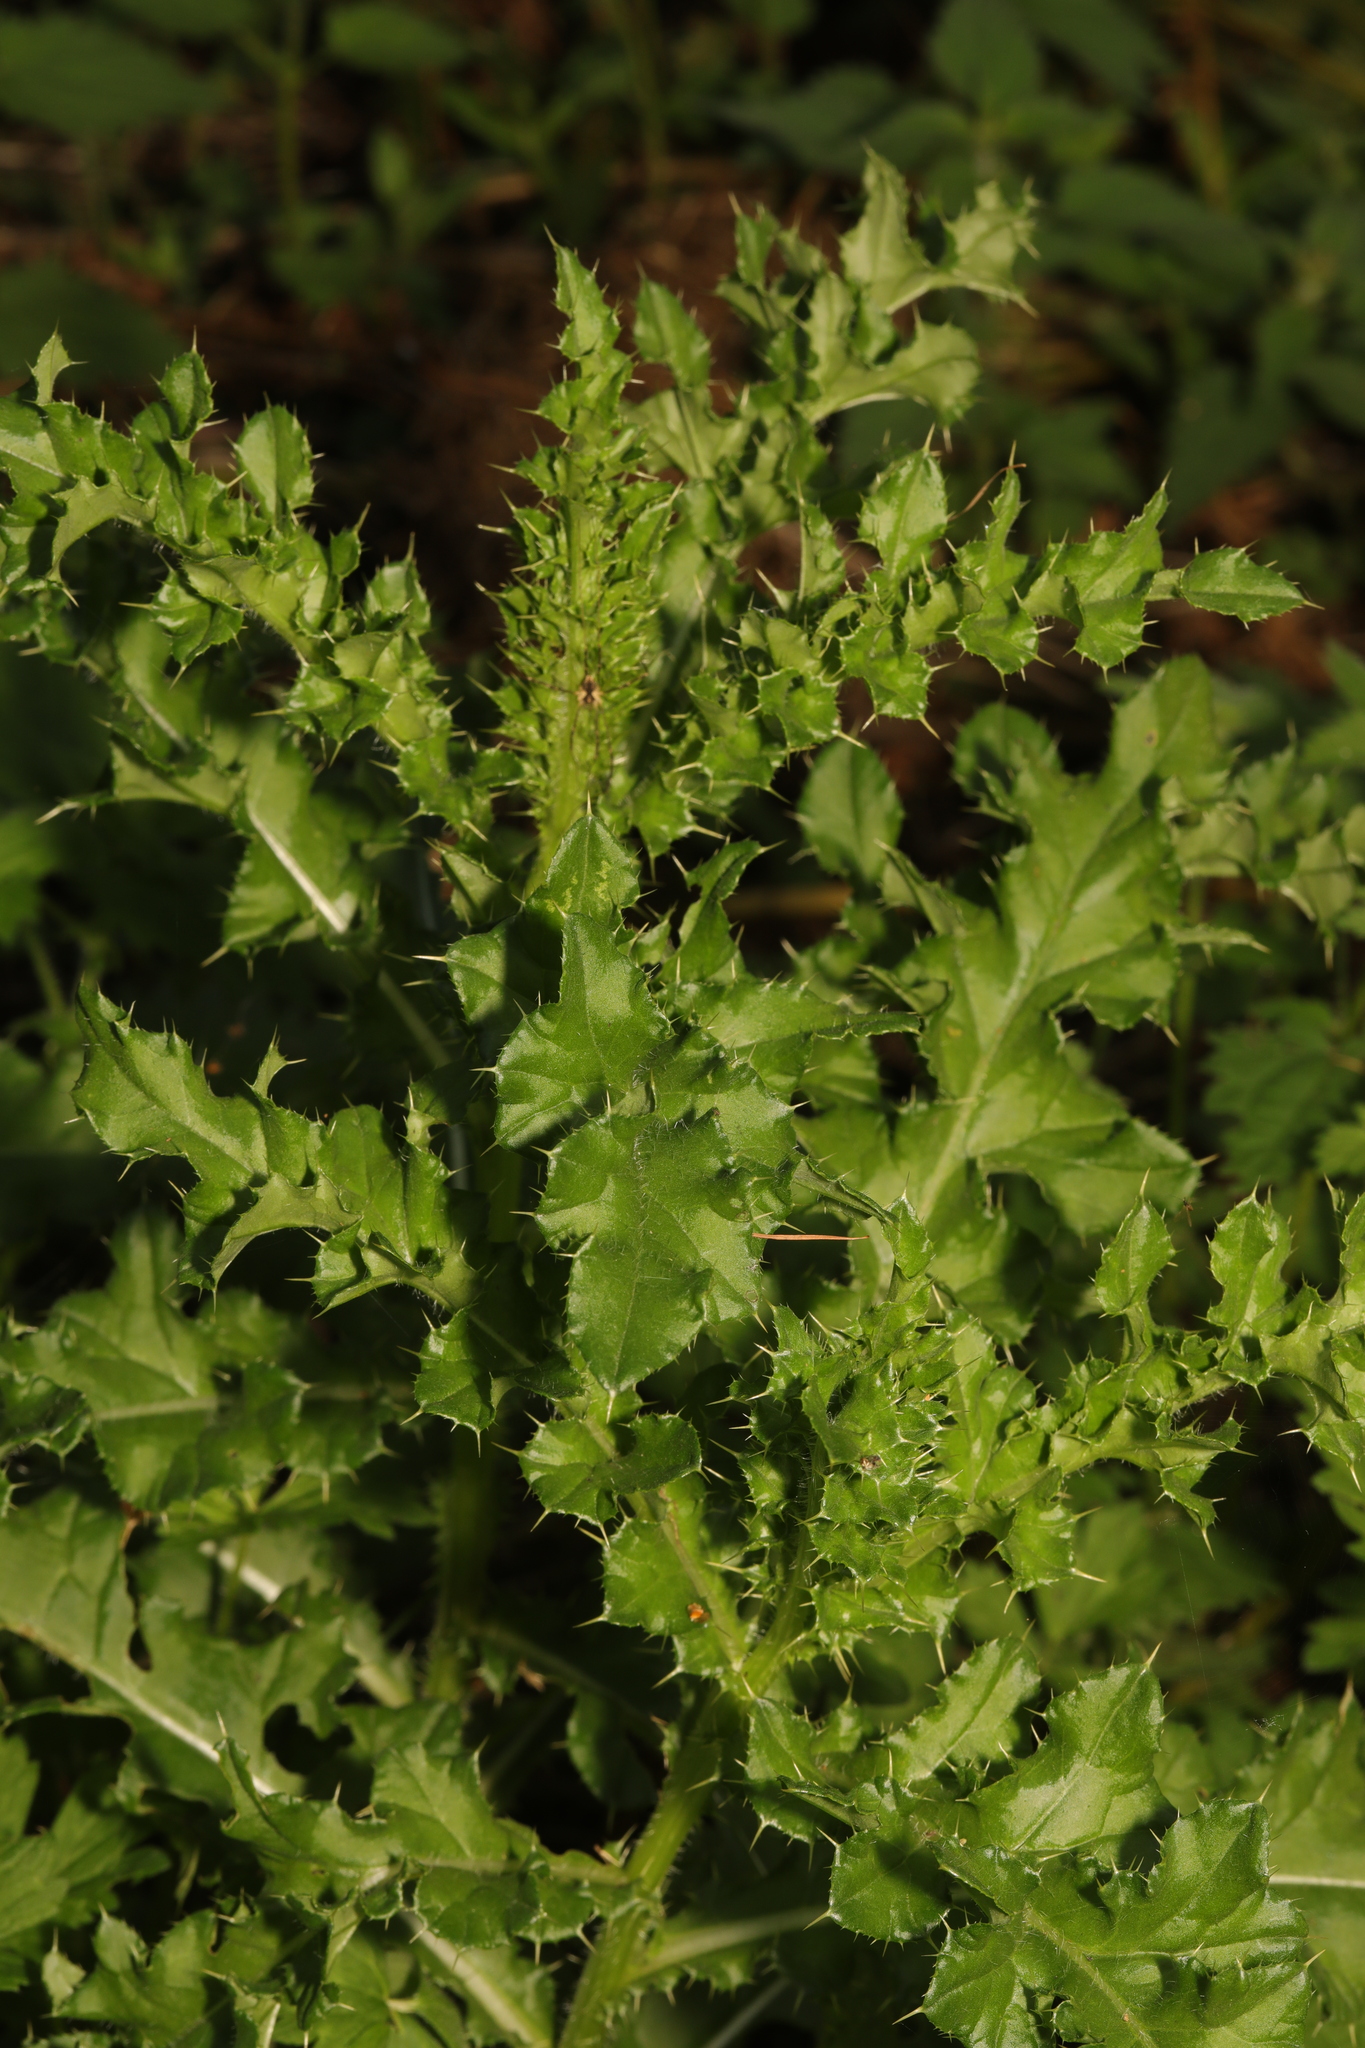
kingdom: Plantae
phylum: Tracheophyta
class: Magnoliopsida
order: Asterales
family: Asteraceae
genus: Cirsium
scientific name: Cirsium arvense
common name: Creeping thistle
